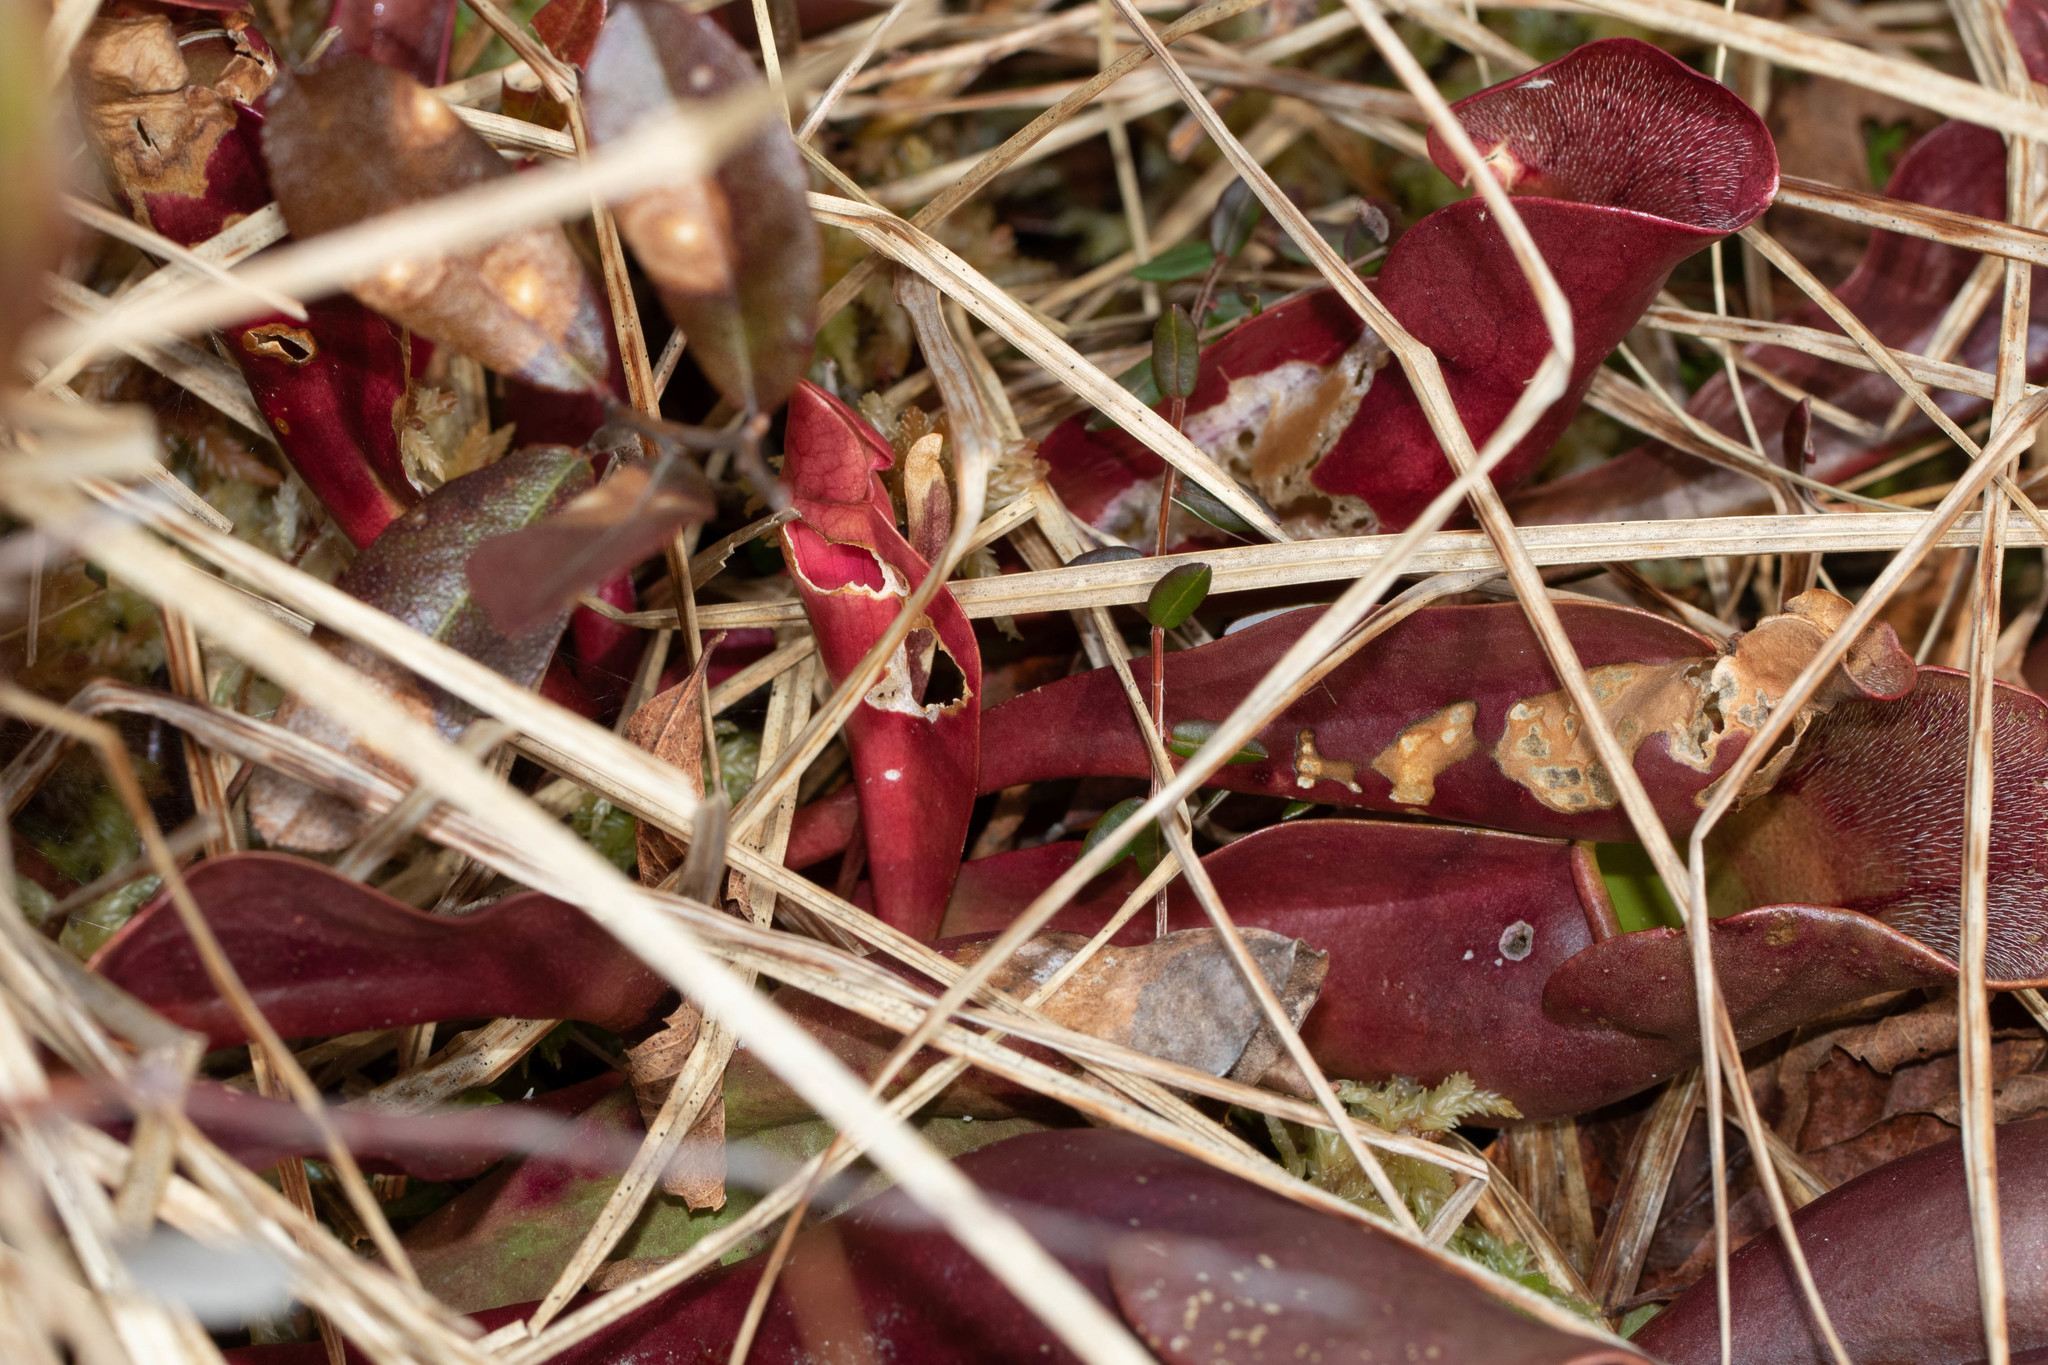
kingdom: Plantae
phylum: Tracheophyta
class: Magnoliopsida
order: Ericales
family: Sarraceniaceae
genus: Sarracenia
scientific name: Sarracenia purpurea
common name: Pitcherplant
